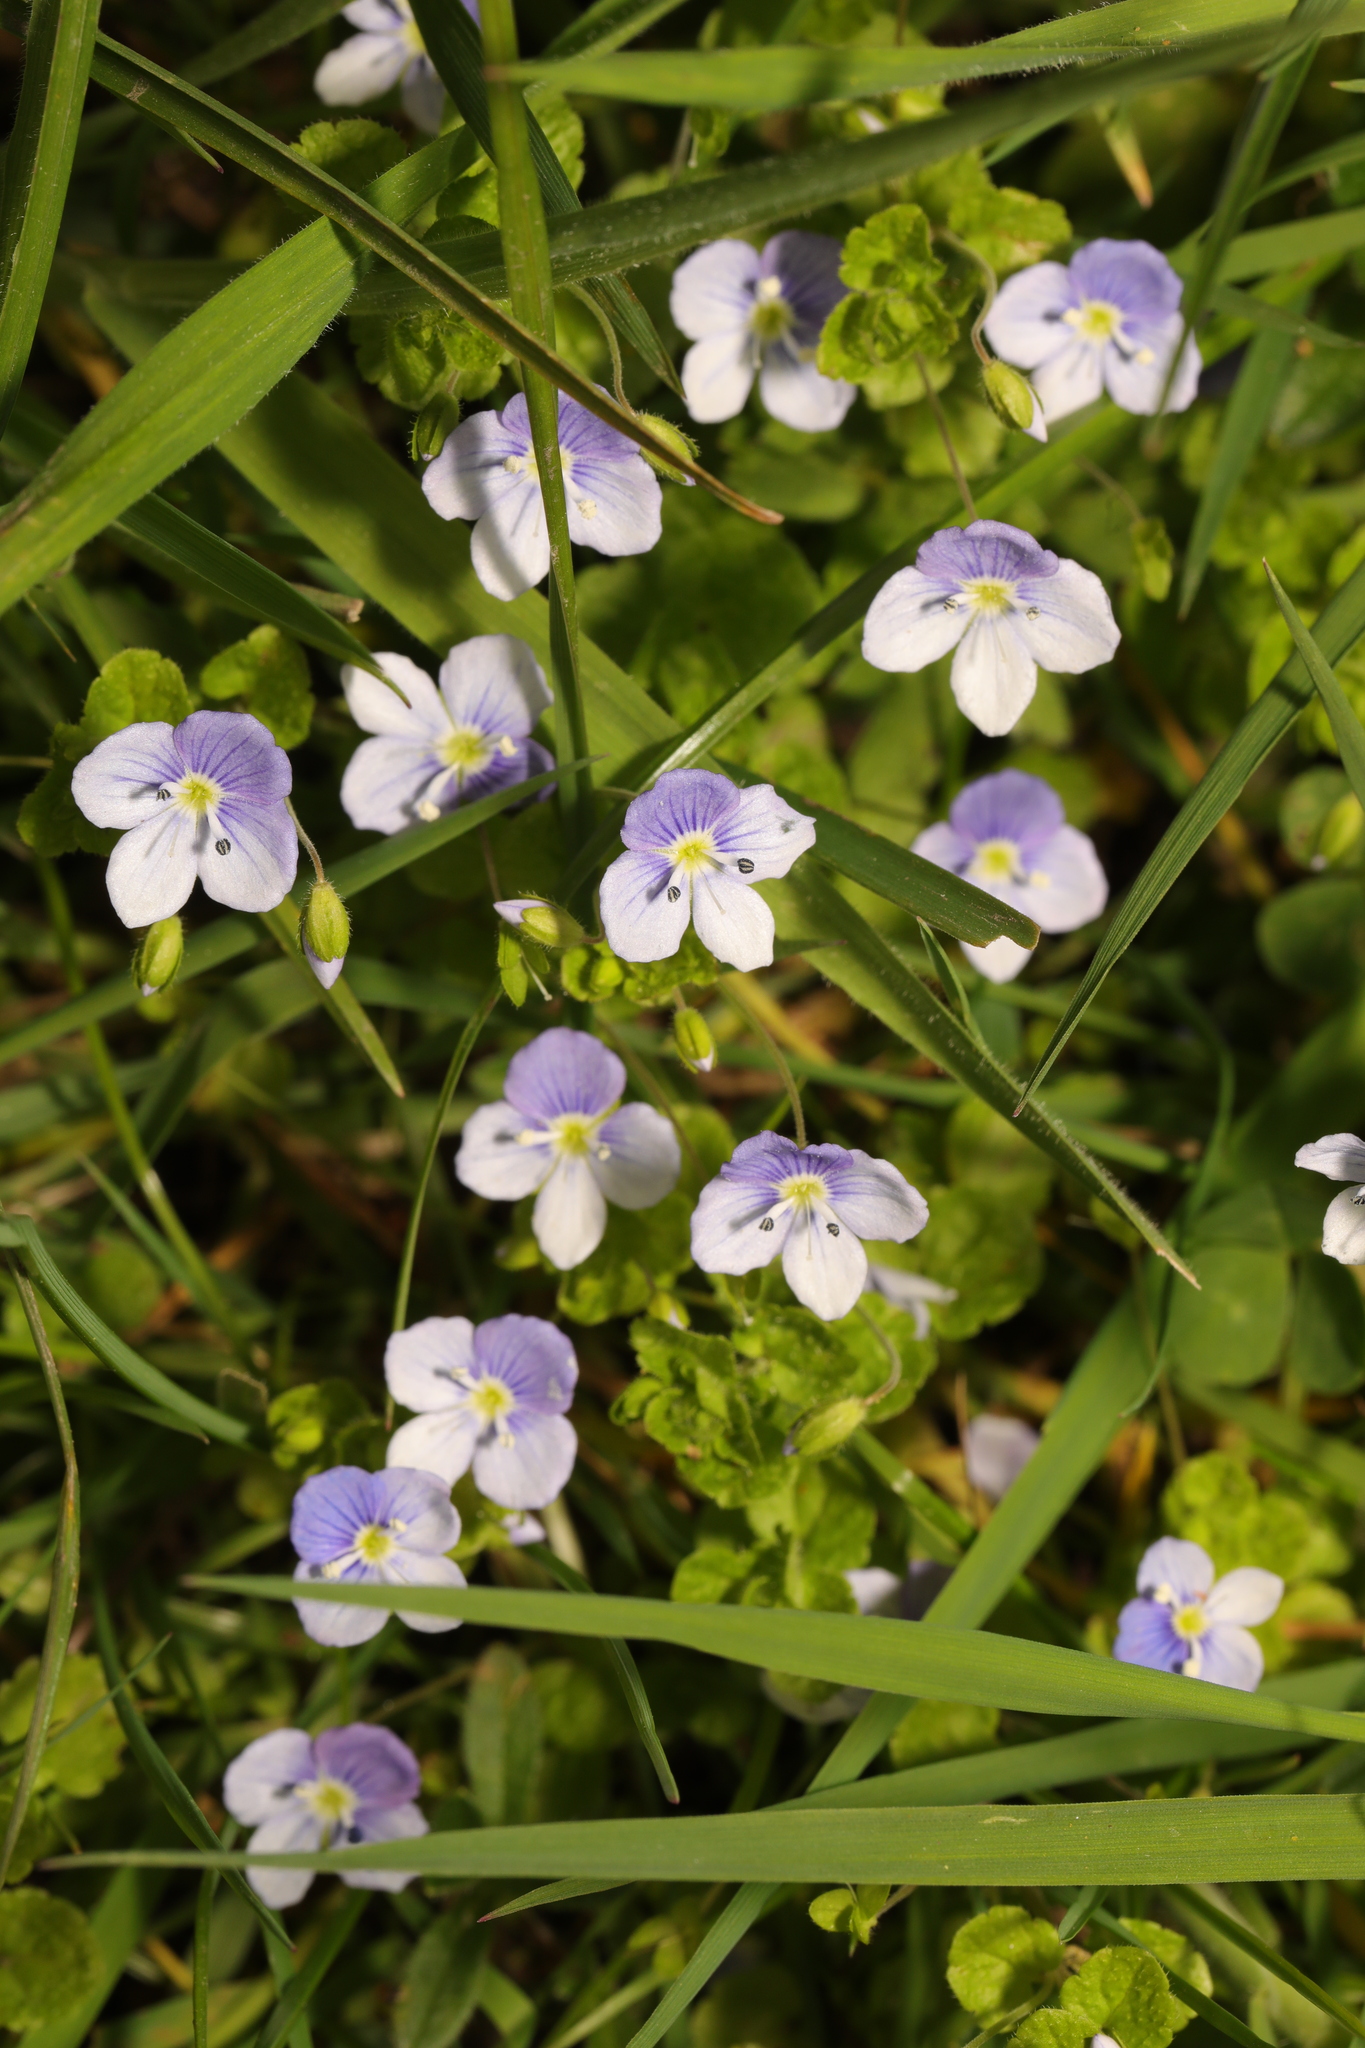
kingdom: Plantae
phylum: Tracheophyta
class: Magnoliopsida
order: Lamiales
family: Plantaginaceae
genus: Veronica
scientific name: Veronica filiformis
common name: Slender speedwell
